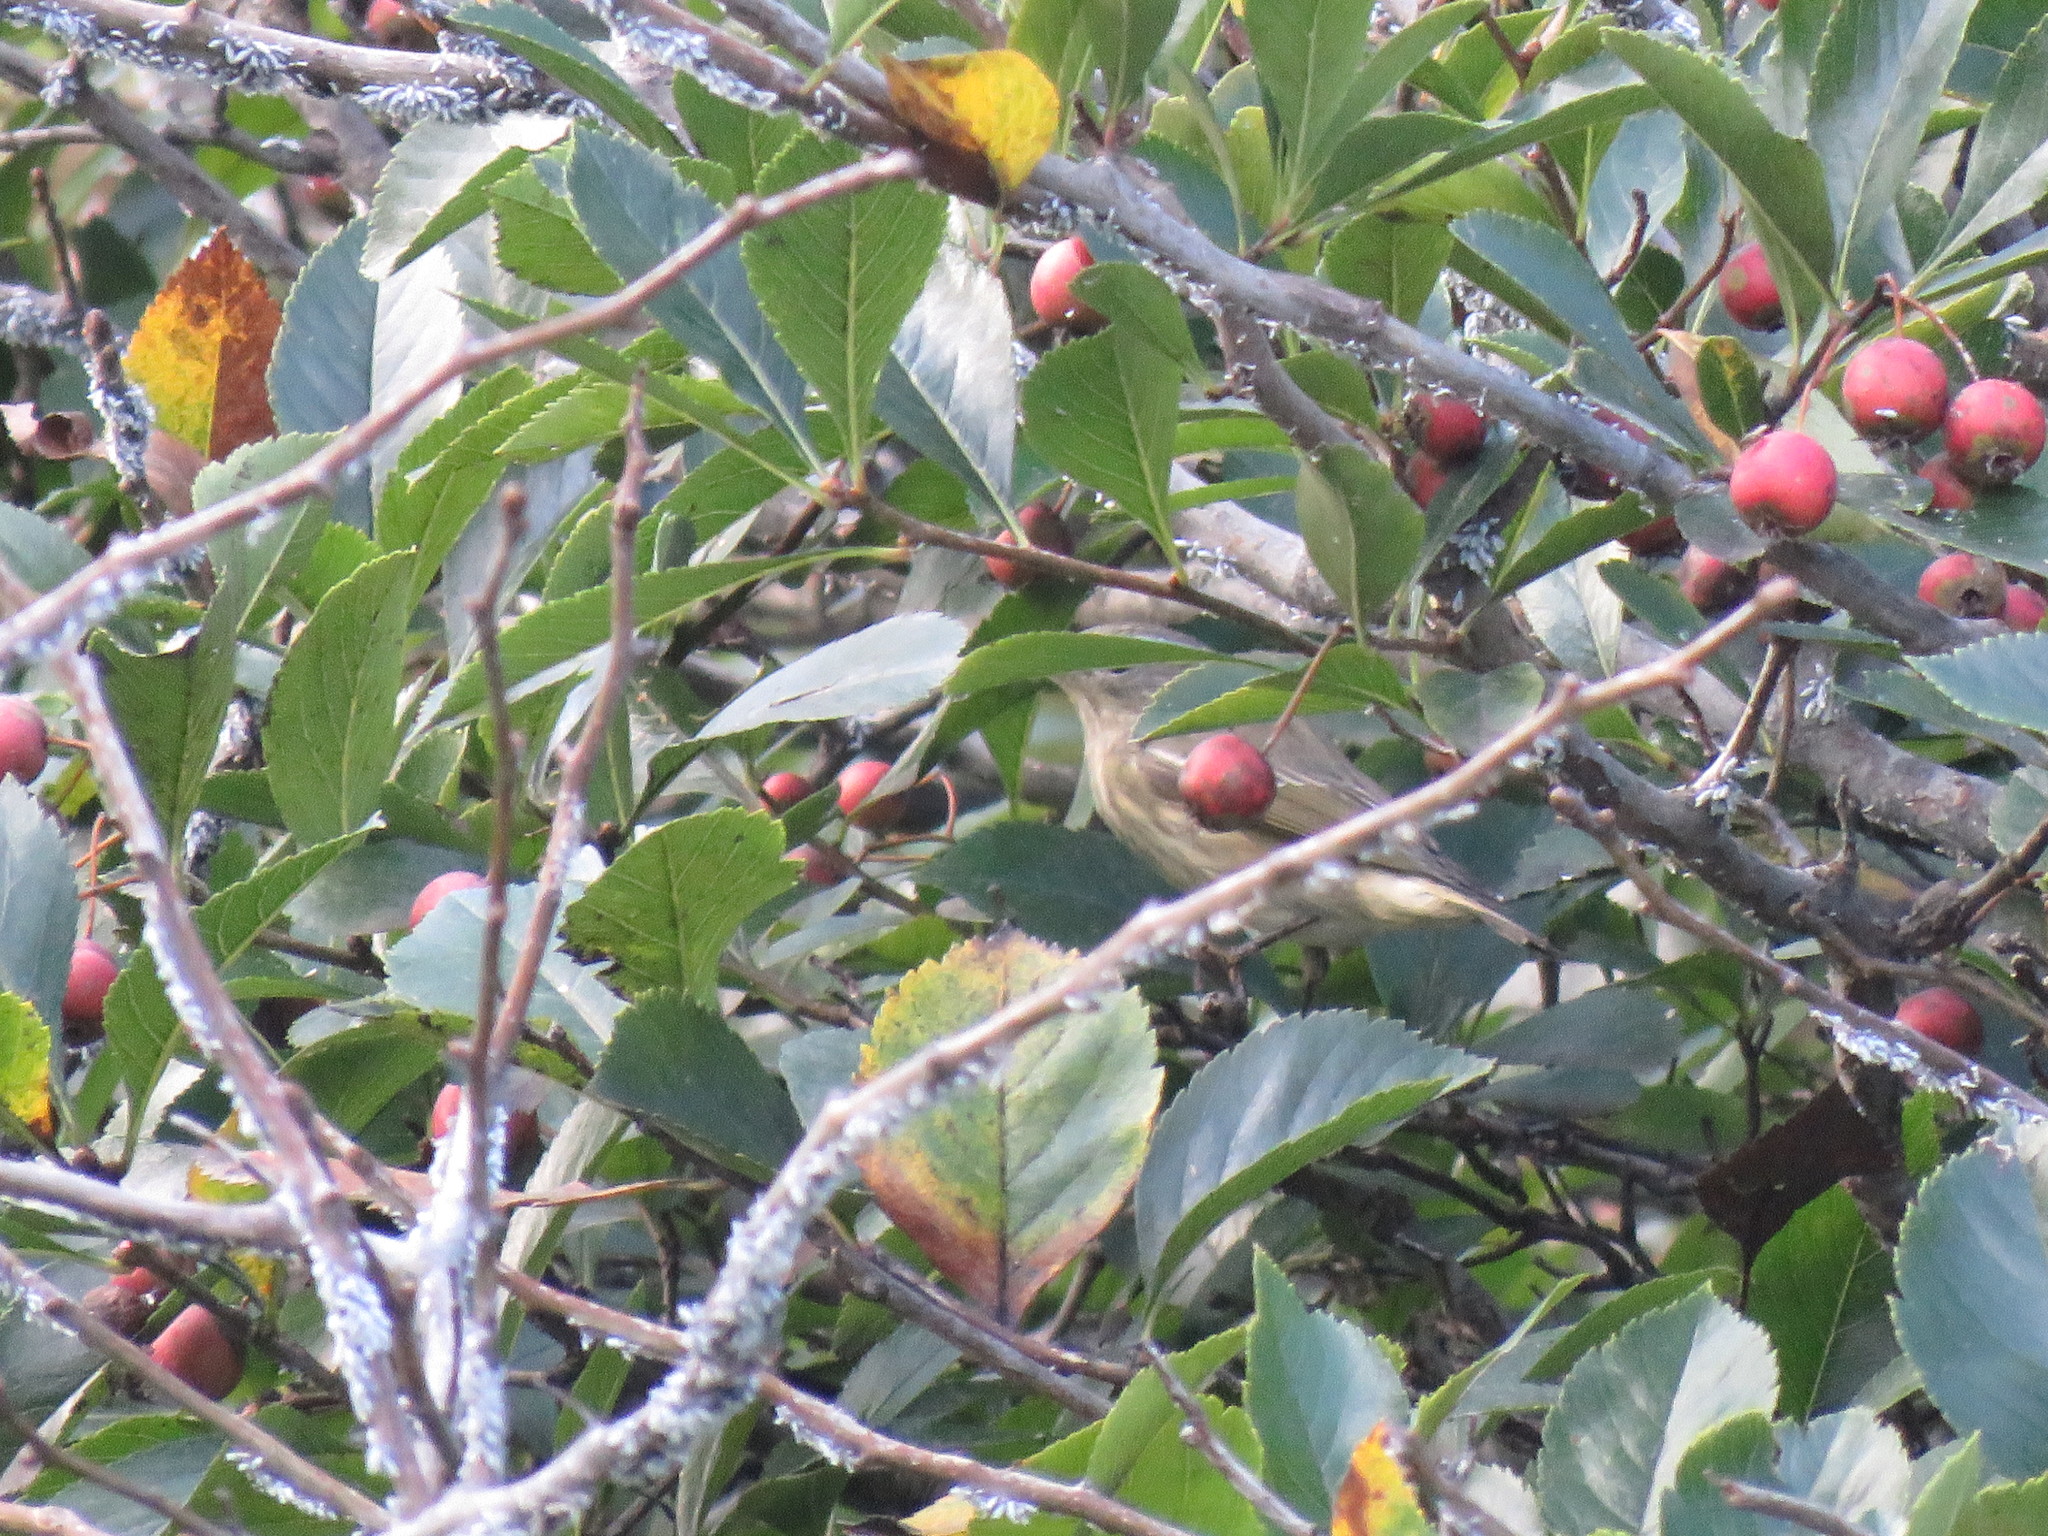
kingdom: Animalia
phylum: Chordata
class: Aves
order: Passeriformes
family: Parulidae
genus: Setophaga
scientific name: Setophaga tigrina
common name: Cape may warbler
